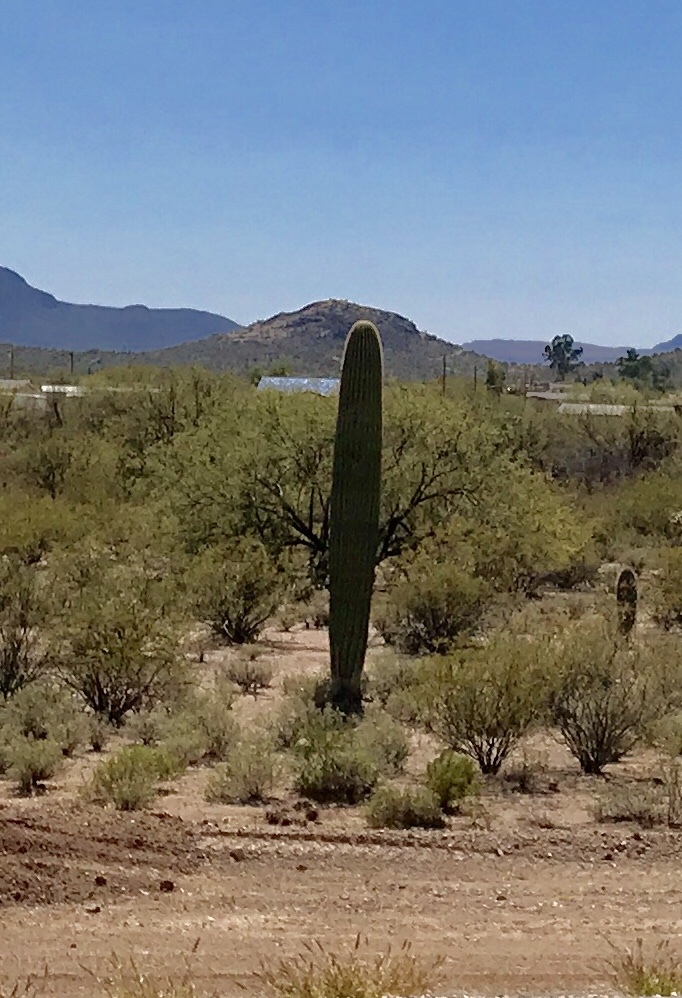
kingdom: Plantae
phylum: Tracheophyta
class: Magnoliopsida
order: Caryophyllales
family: Cactaceae
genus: Carnegiea
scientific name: Carnegiea gigantea
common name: Saguaro
